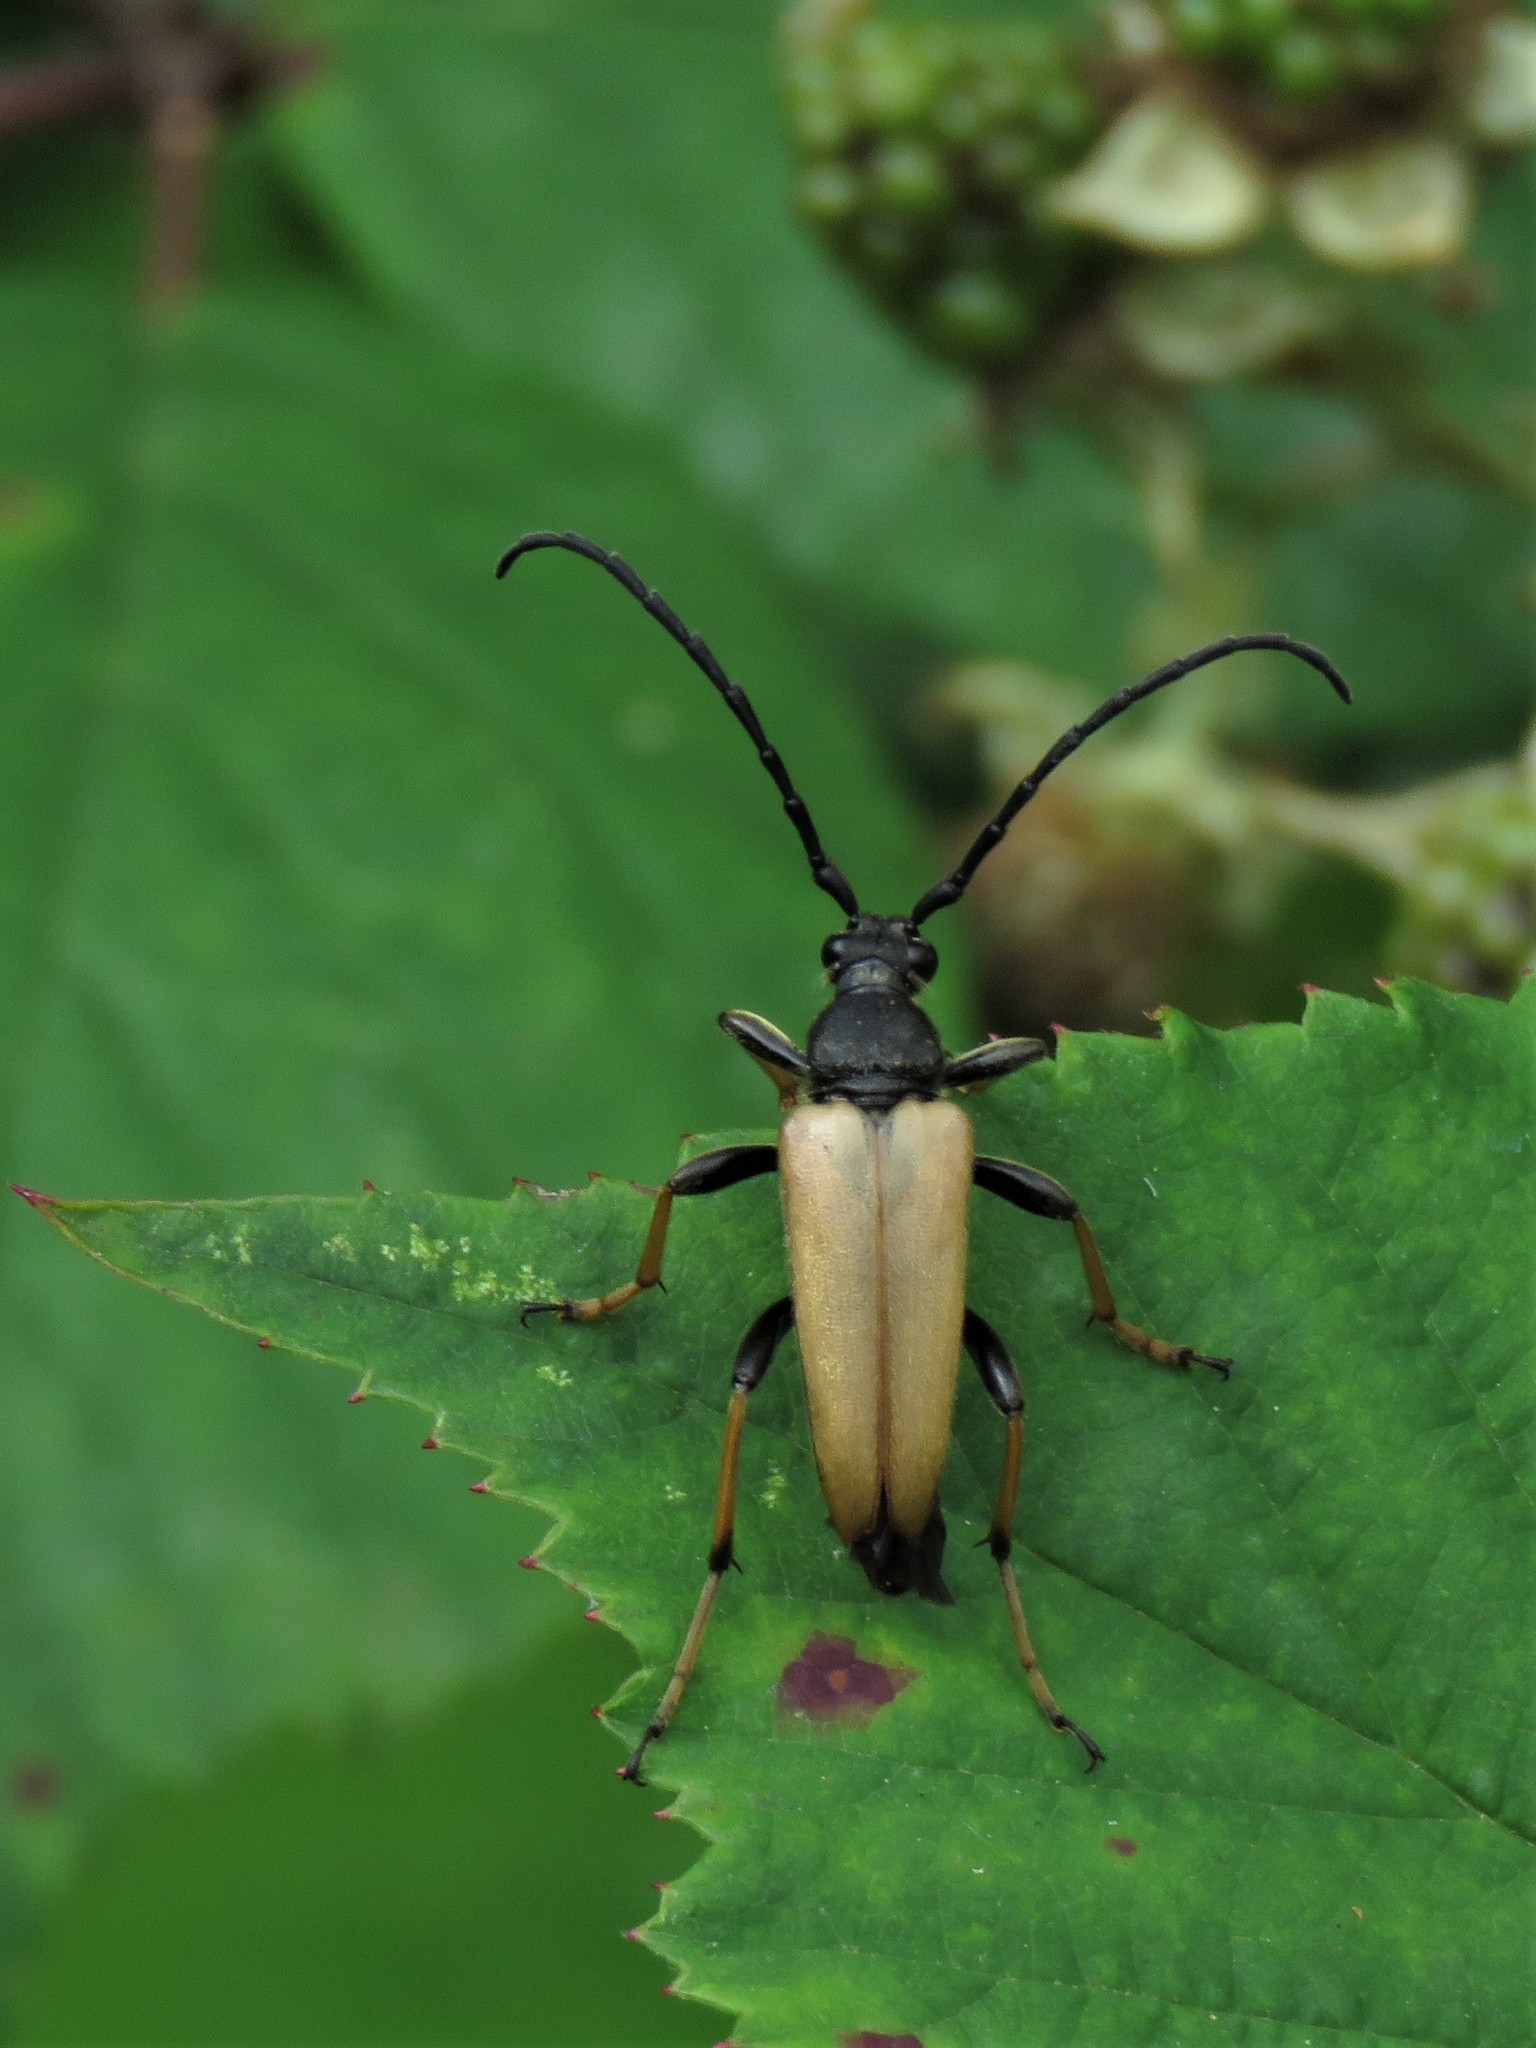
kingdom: Animalia
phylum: Arthropoda
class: Insecta
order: Coleoptera
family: Cerambycidae
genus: Stictoleptura
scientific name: Stictoleptura rubra
